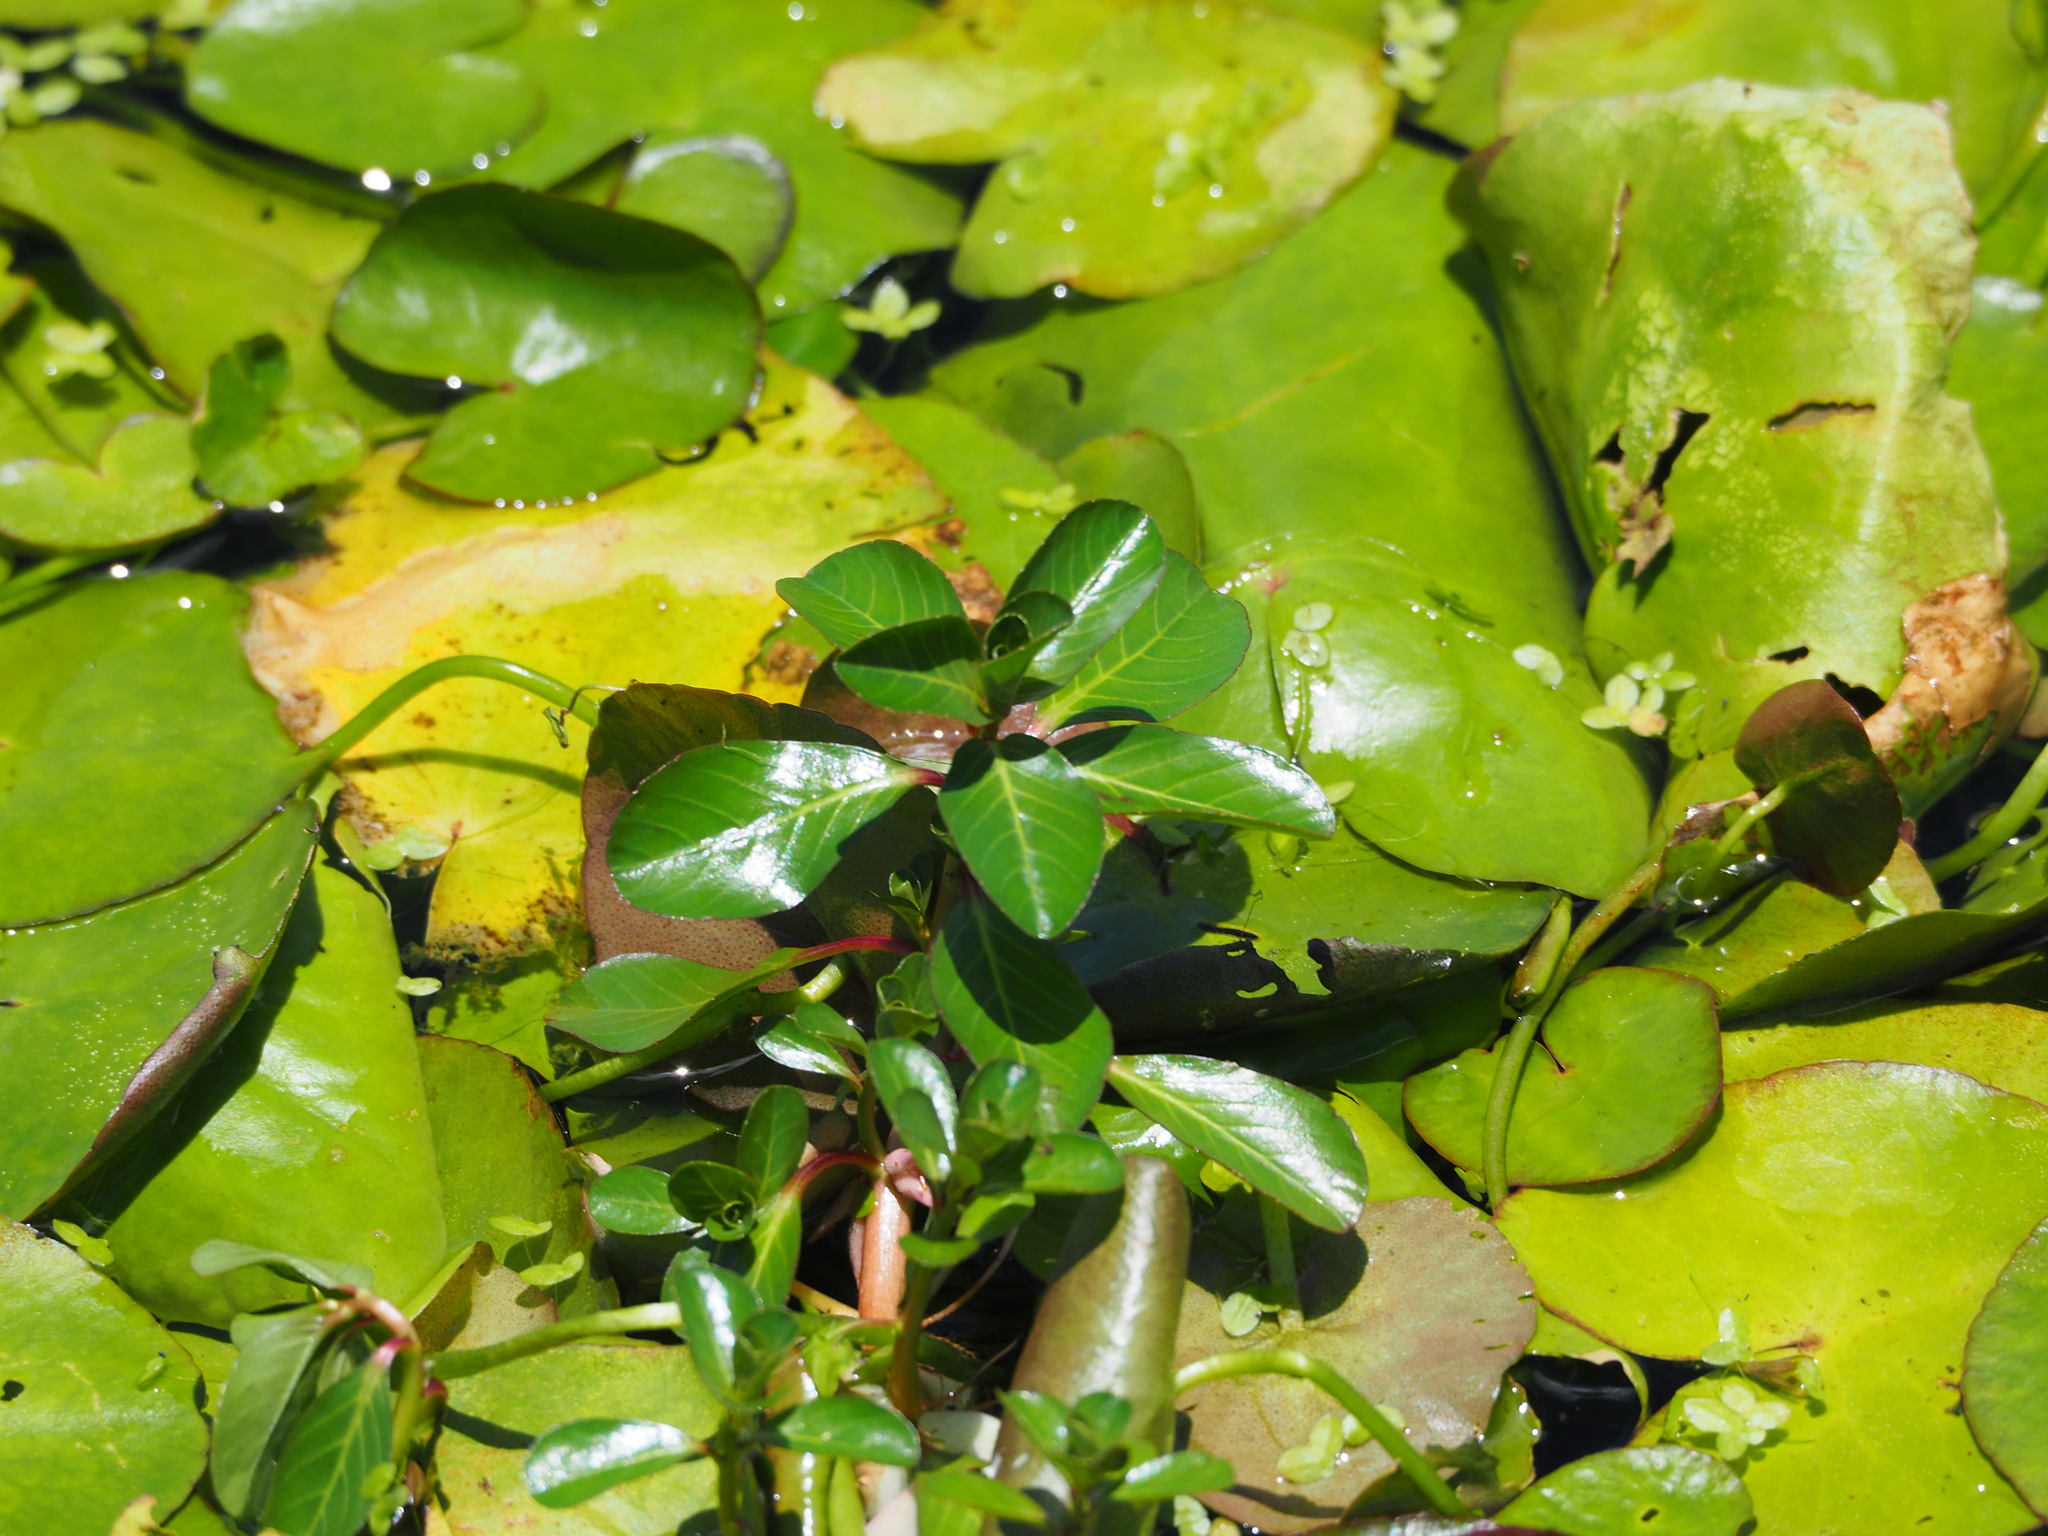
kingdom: Plantae
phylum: Tracheophyta
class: Magnoliopsida
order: Myrtales
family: Onagraceae
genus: Ludwigia
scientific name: Ludwigia taiwanensis
